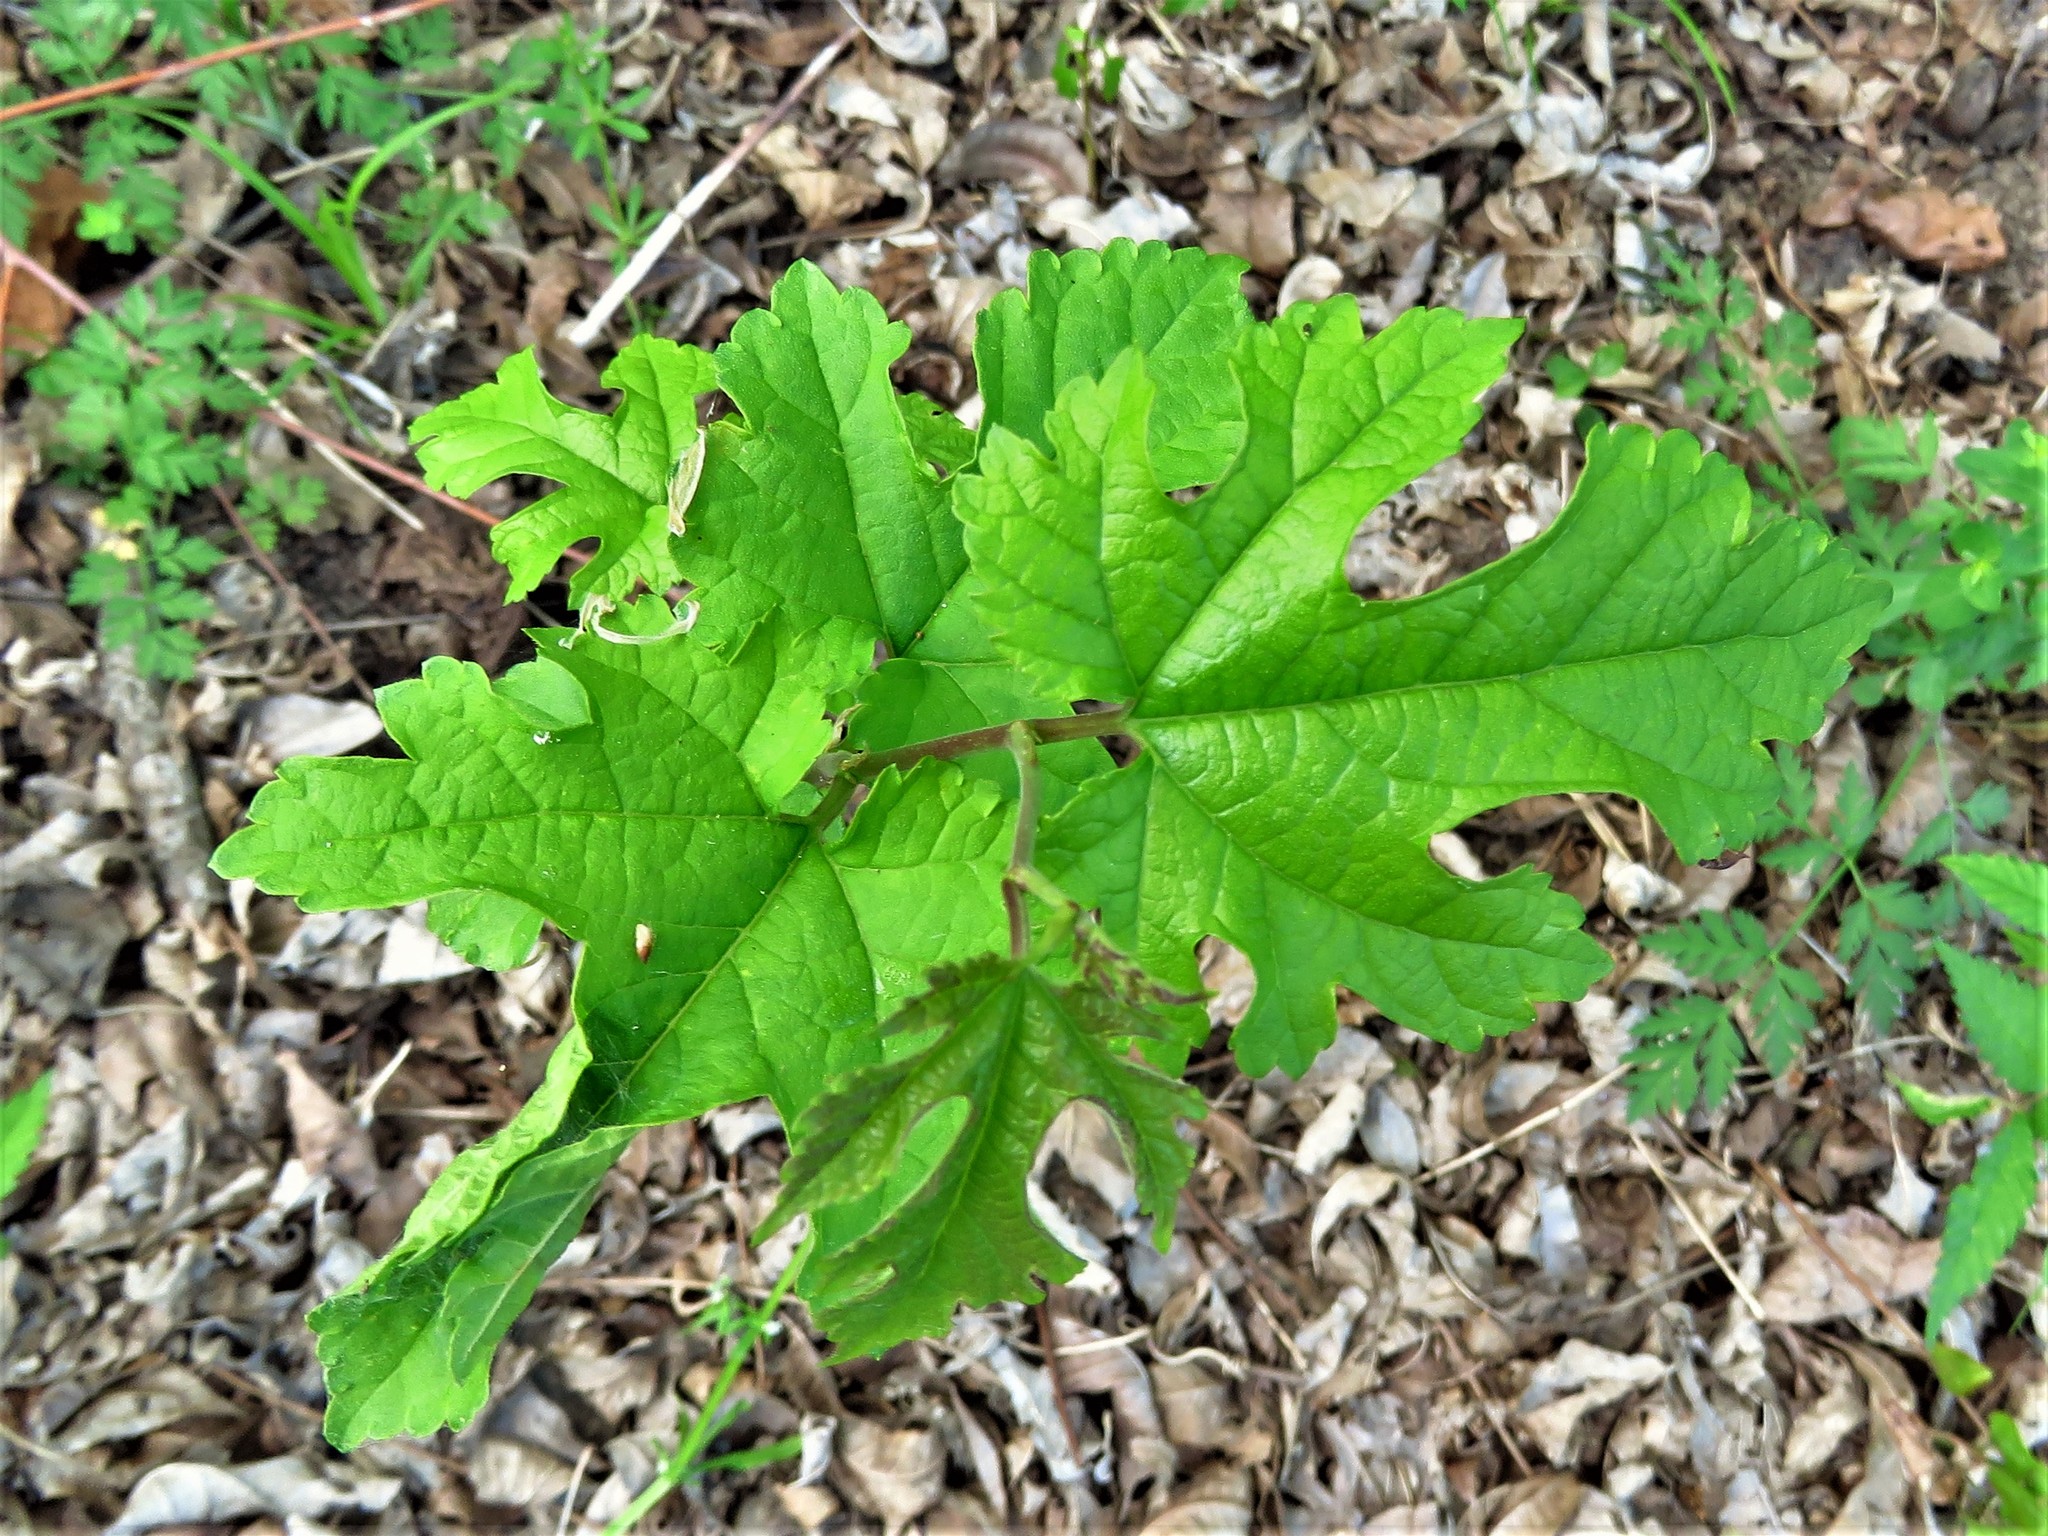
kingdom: Plantae
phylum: Tracheophyta
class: Magnoliopsida
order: Rosales
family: Moraceae
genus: Morus
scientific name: Morus rubra
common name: Red mulberry
